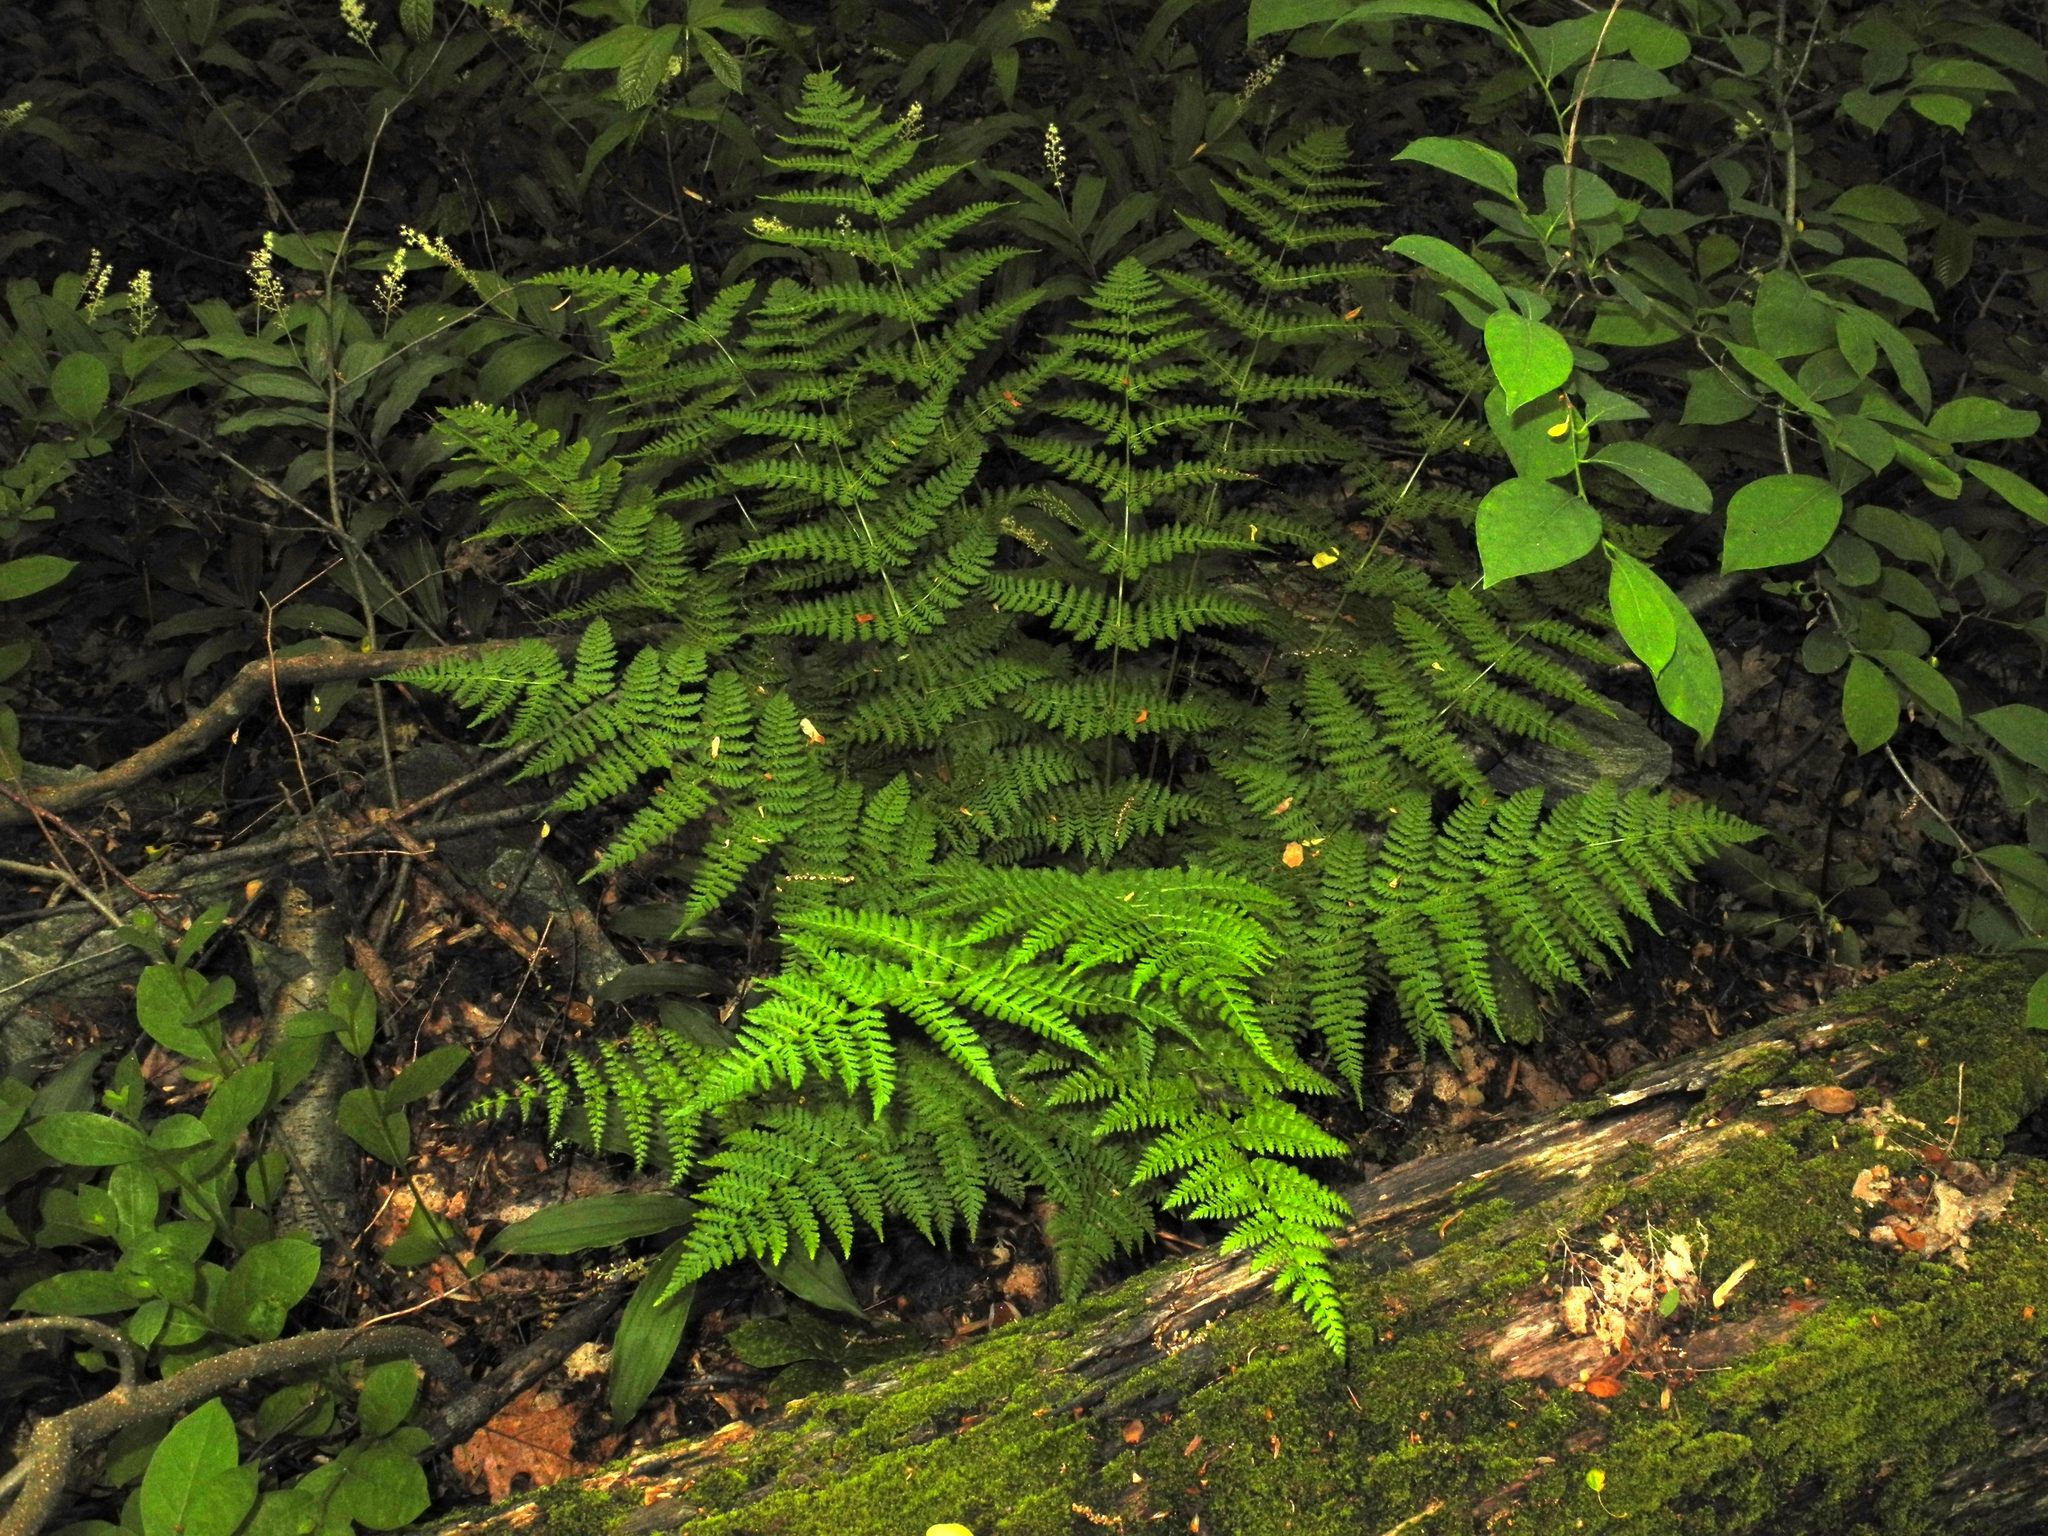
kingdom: Plantae
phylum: Tracheophyta
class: Polypodiopsida
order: Polypodiales
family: Dryopteridaceae
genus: Dryopteris
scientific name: Dryopteris intermedia
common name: Evergreen wood fern
